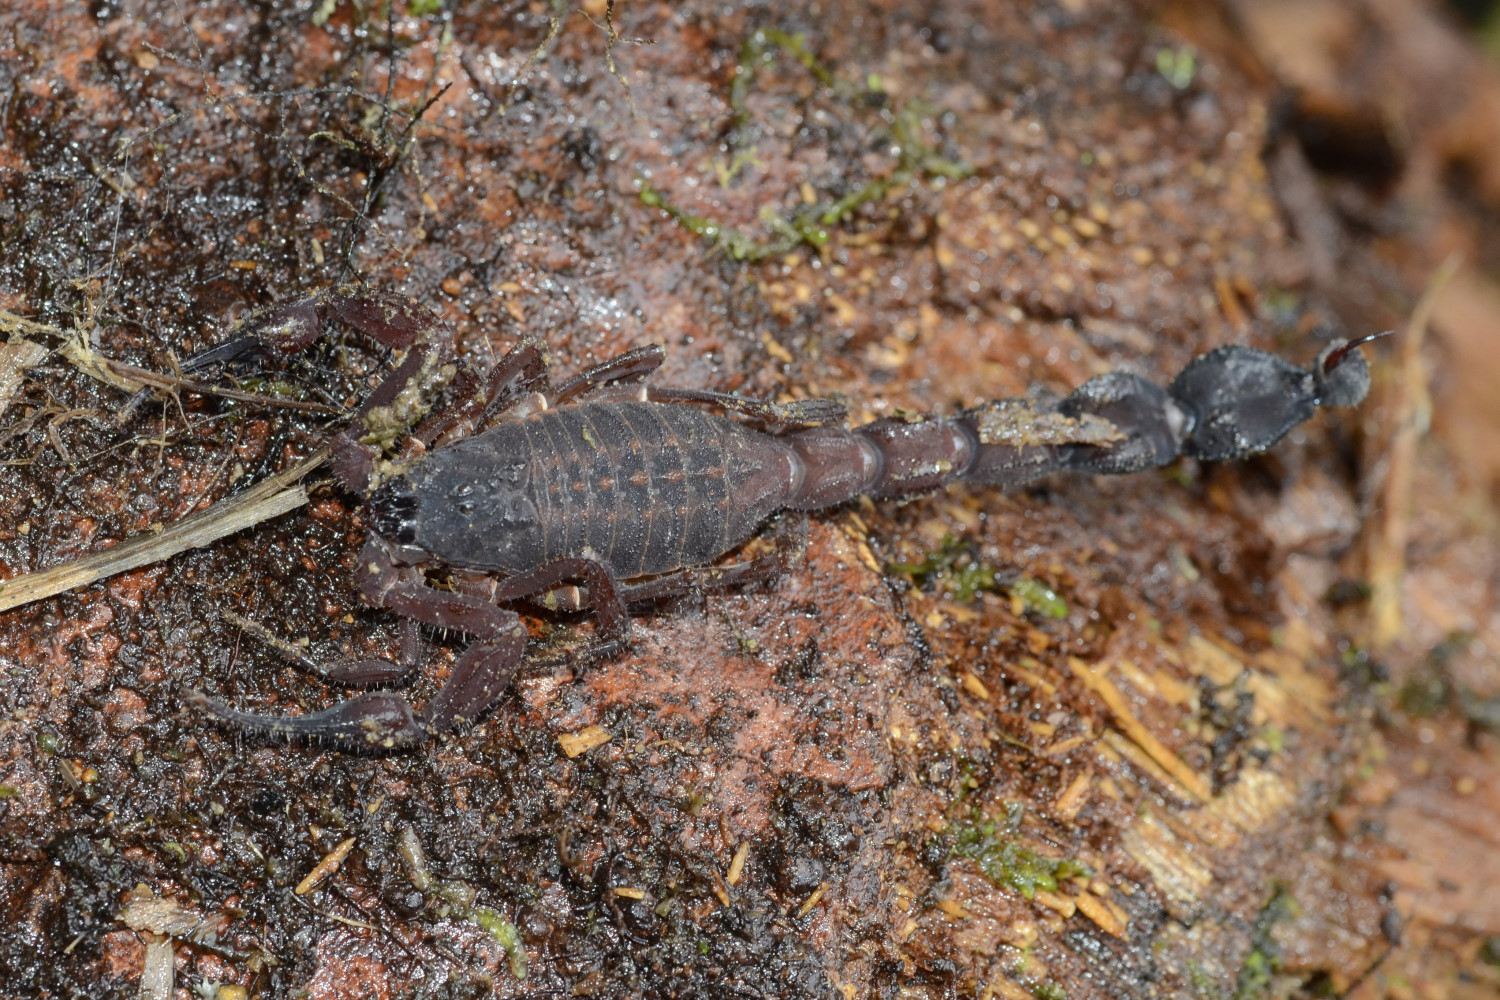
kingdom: Animalia
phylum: Arthropoda
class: Arachnida
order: Scorpiones
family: Buthidae
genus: Tityus
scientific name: Tityus crassicauda
